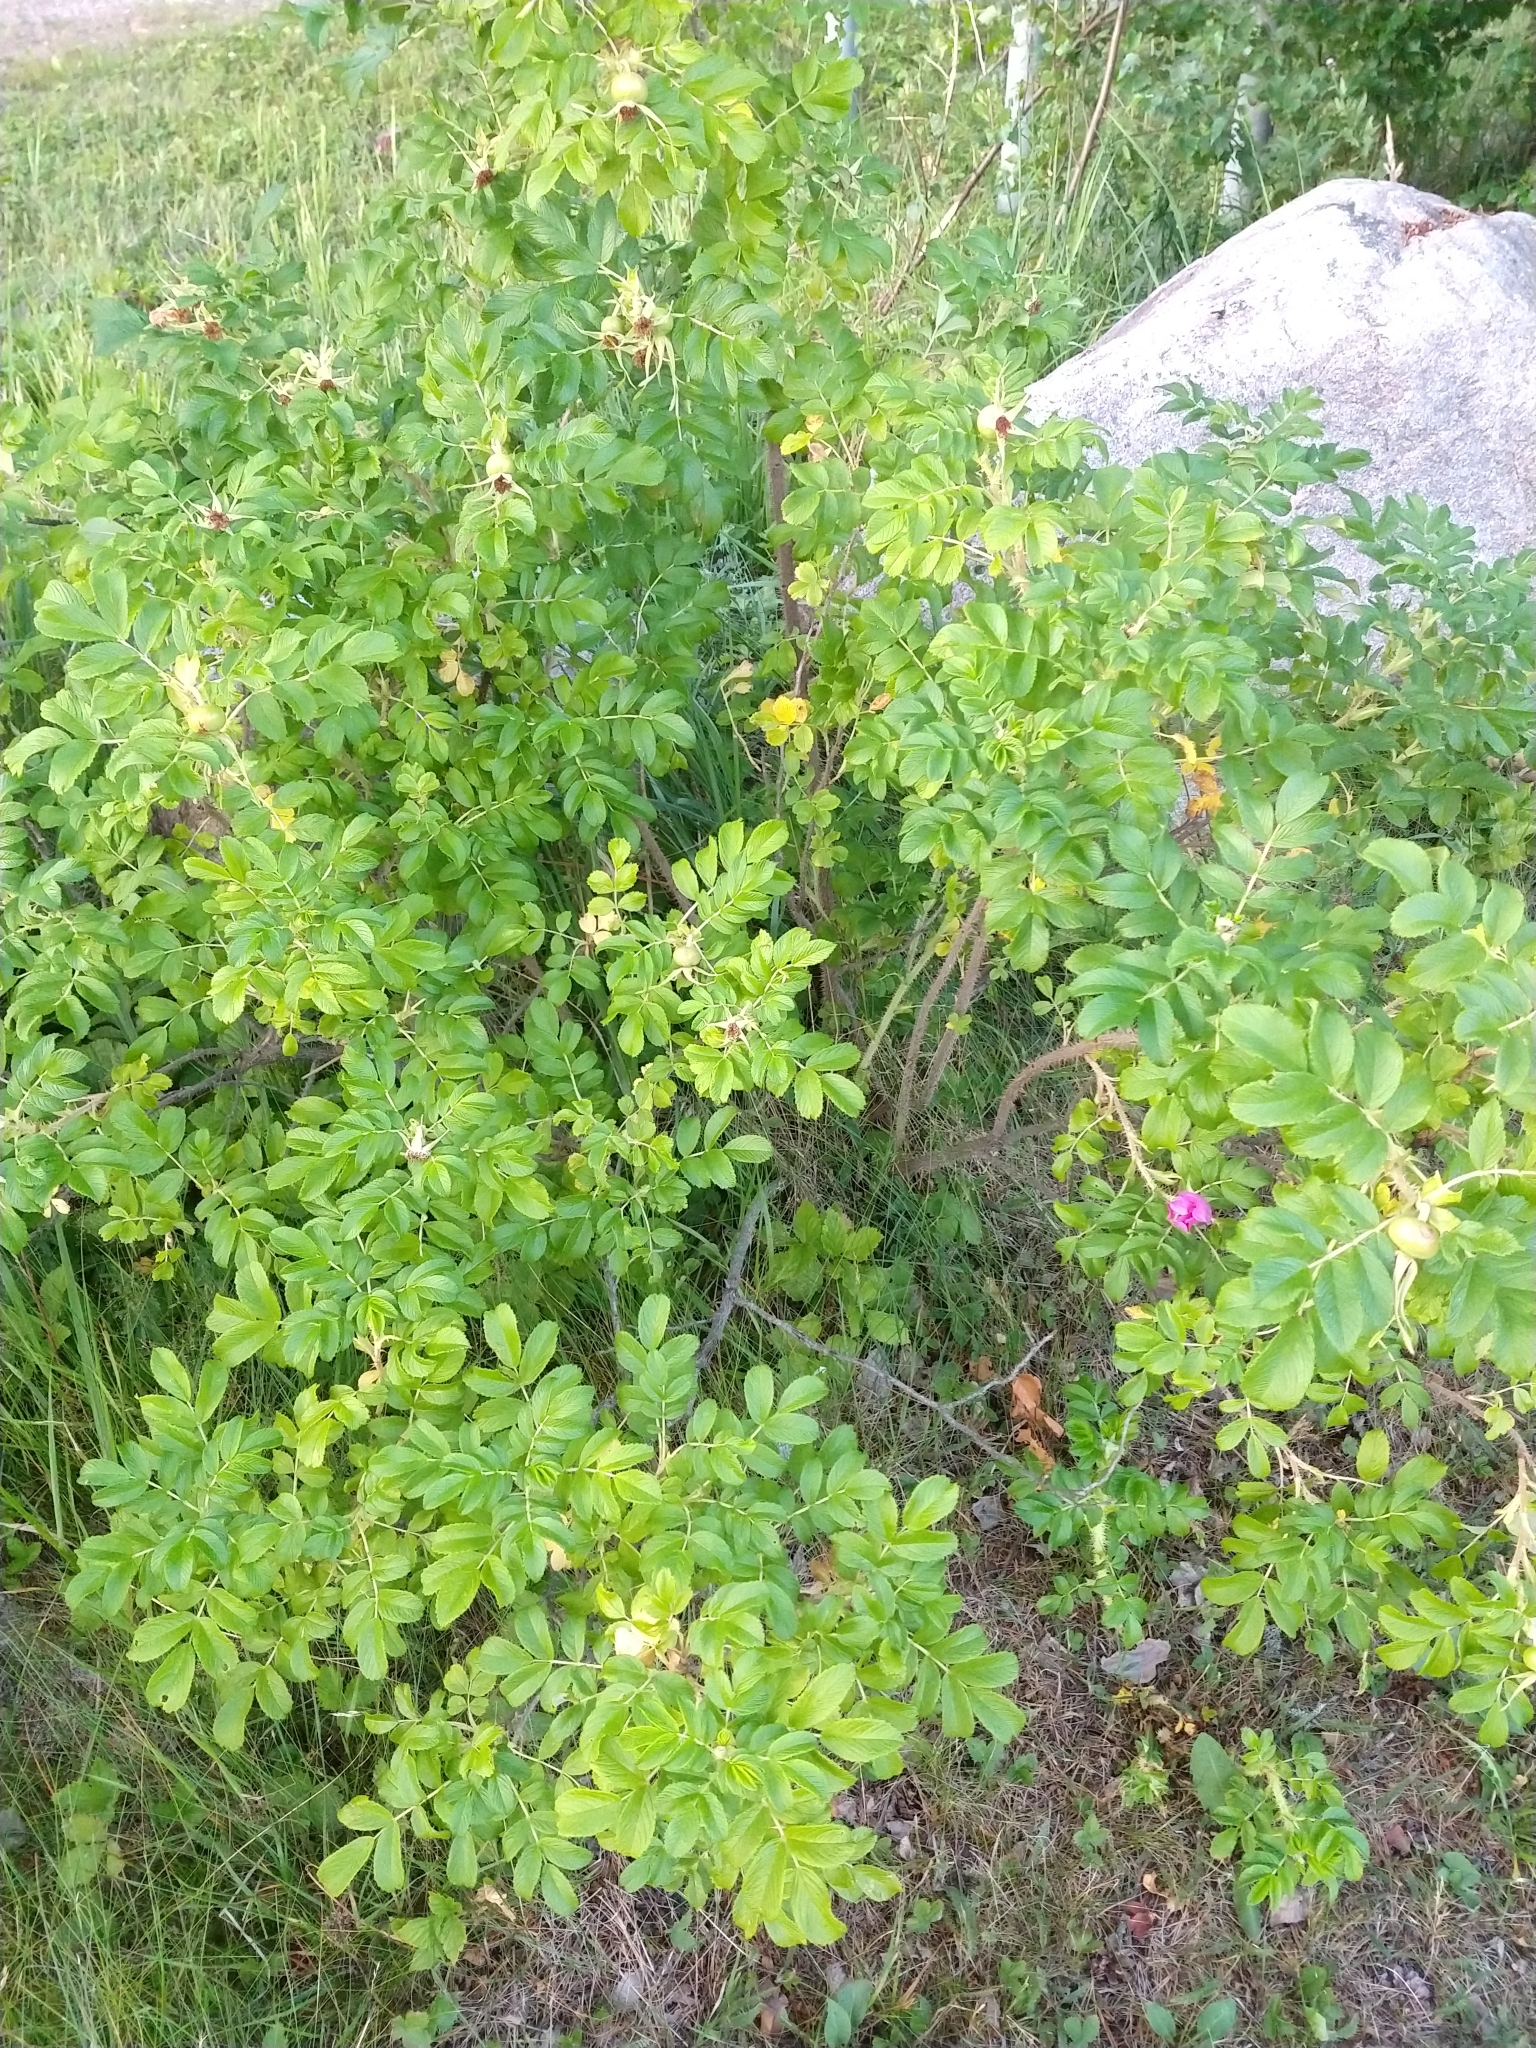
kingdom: Plantae
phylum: Tracheophyta
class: Magnoliopsida
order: Rosales
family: Rosaceae
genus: Rosa
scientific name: Rosa rugosa
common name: Japanese rose
